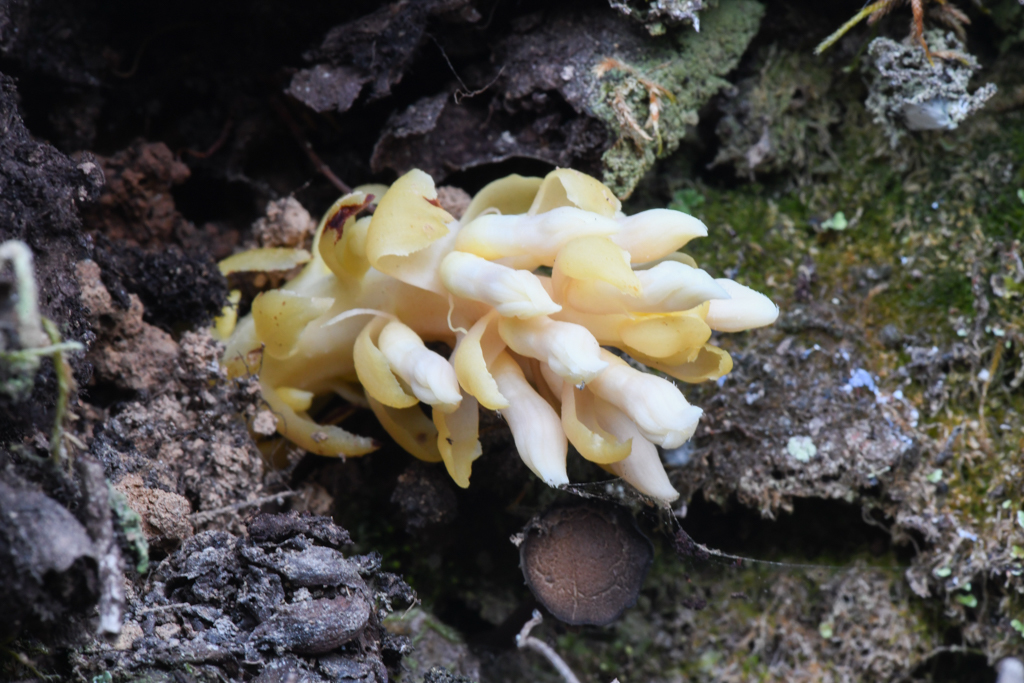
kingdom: Plantae
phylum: Tracheophyta
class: Magnoliopsida
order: Lamiales
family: Orobanchaceae
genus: Kopsiopsis
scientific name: Kopsiopsis hookeri
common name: Hooker's groundcone
